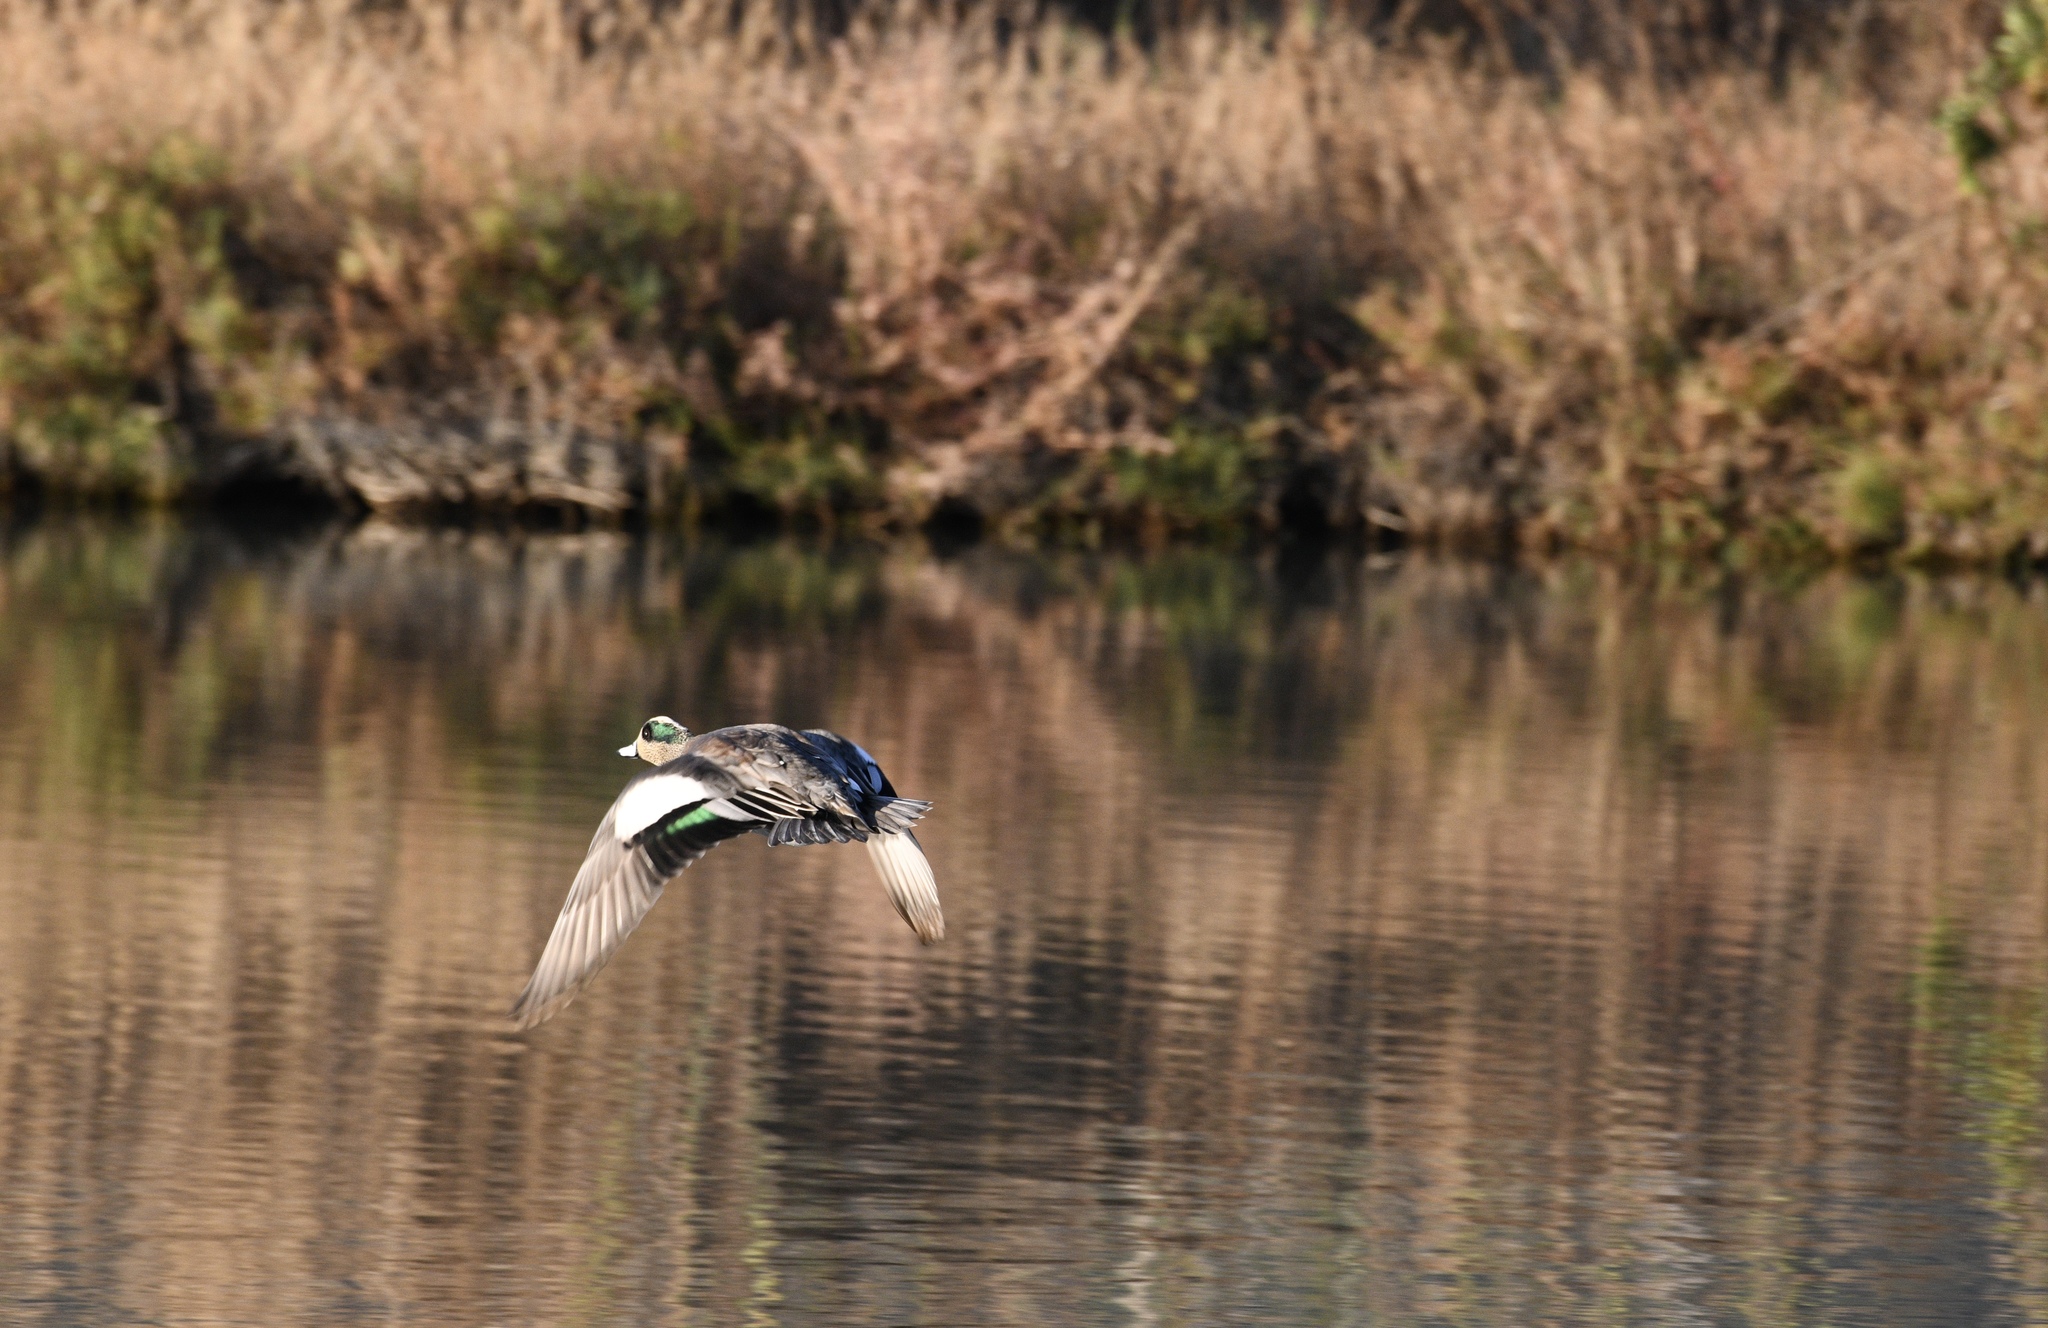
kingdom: Animalia
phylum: Chordata
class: Aves
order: Anseriformes
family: Anatidae
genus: Mareca
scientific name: Mareca americana
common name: American wigeon
